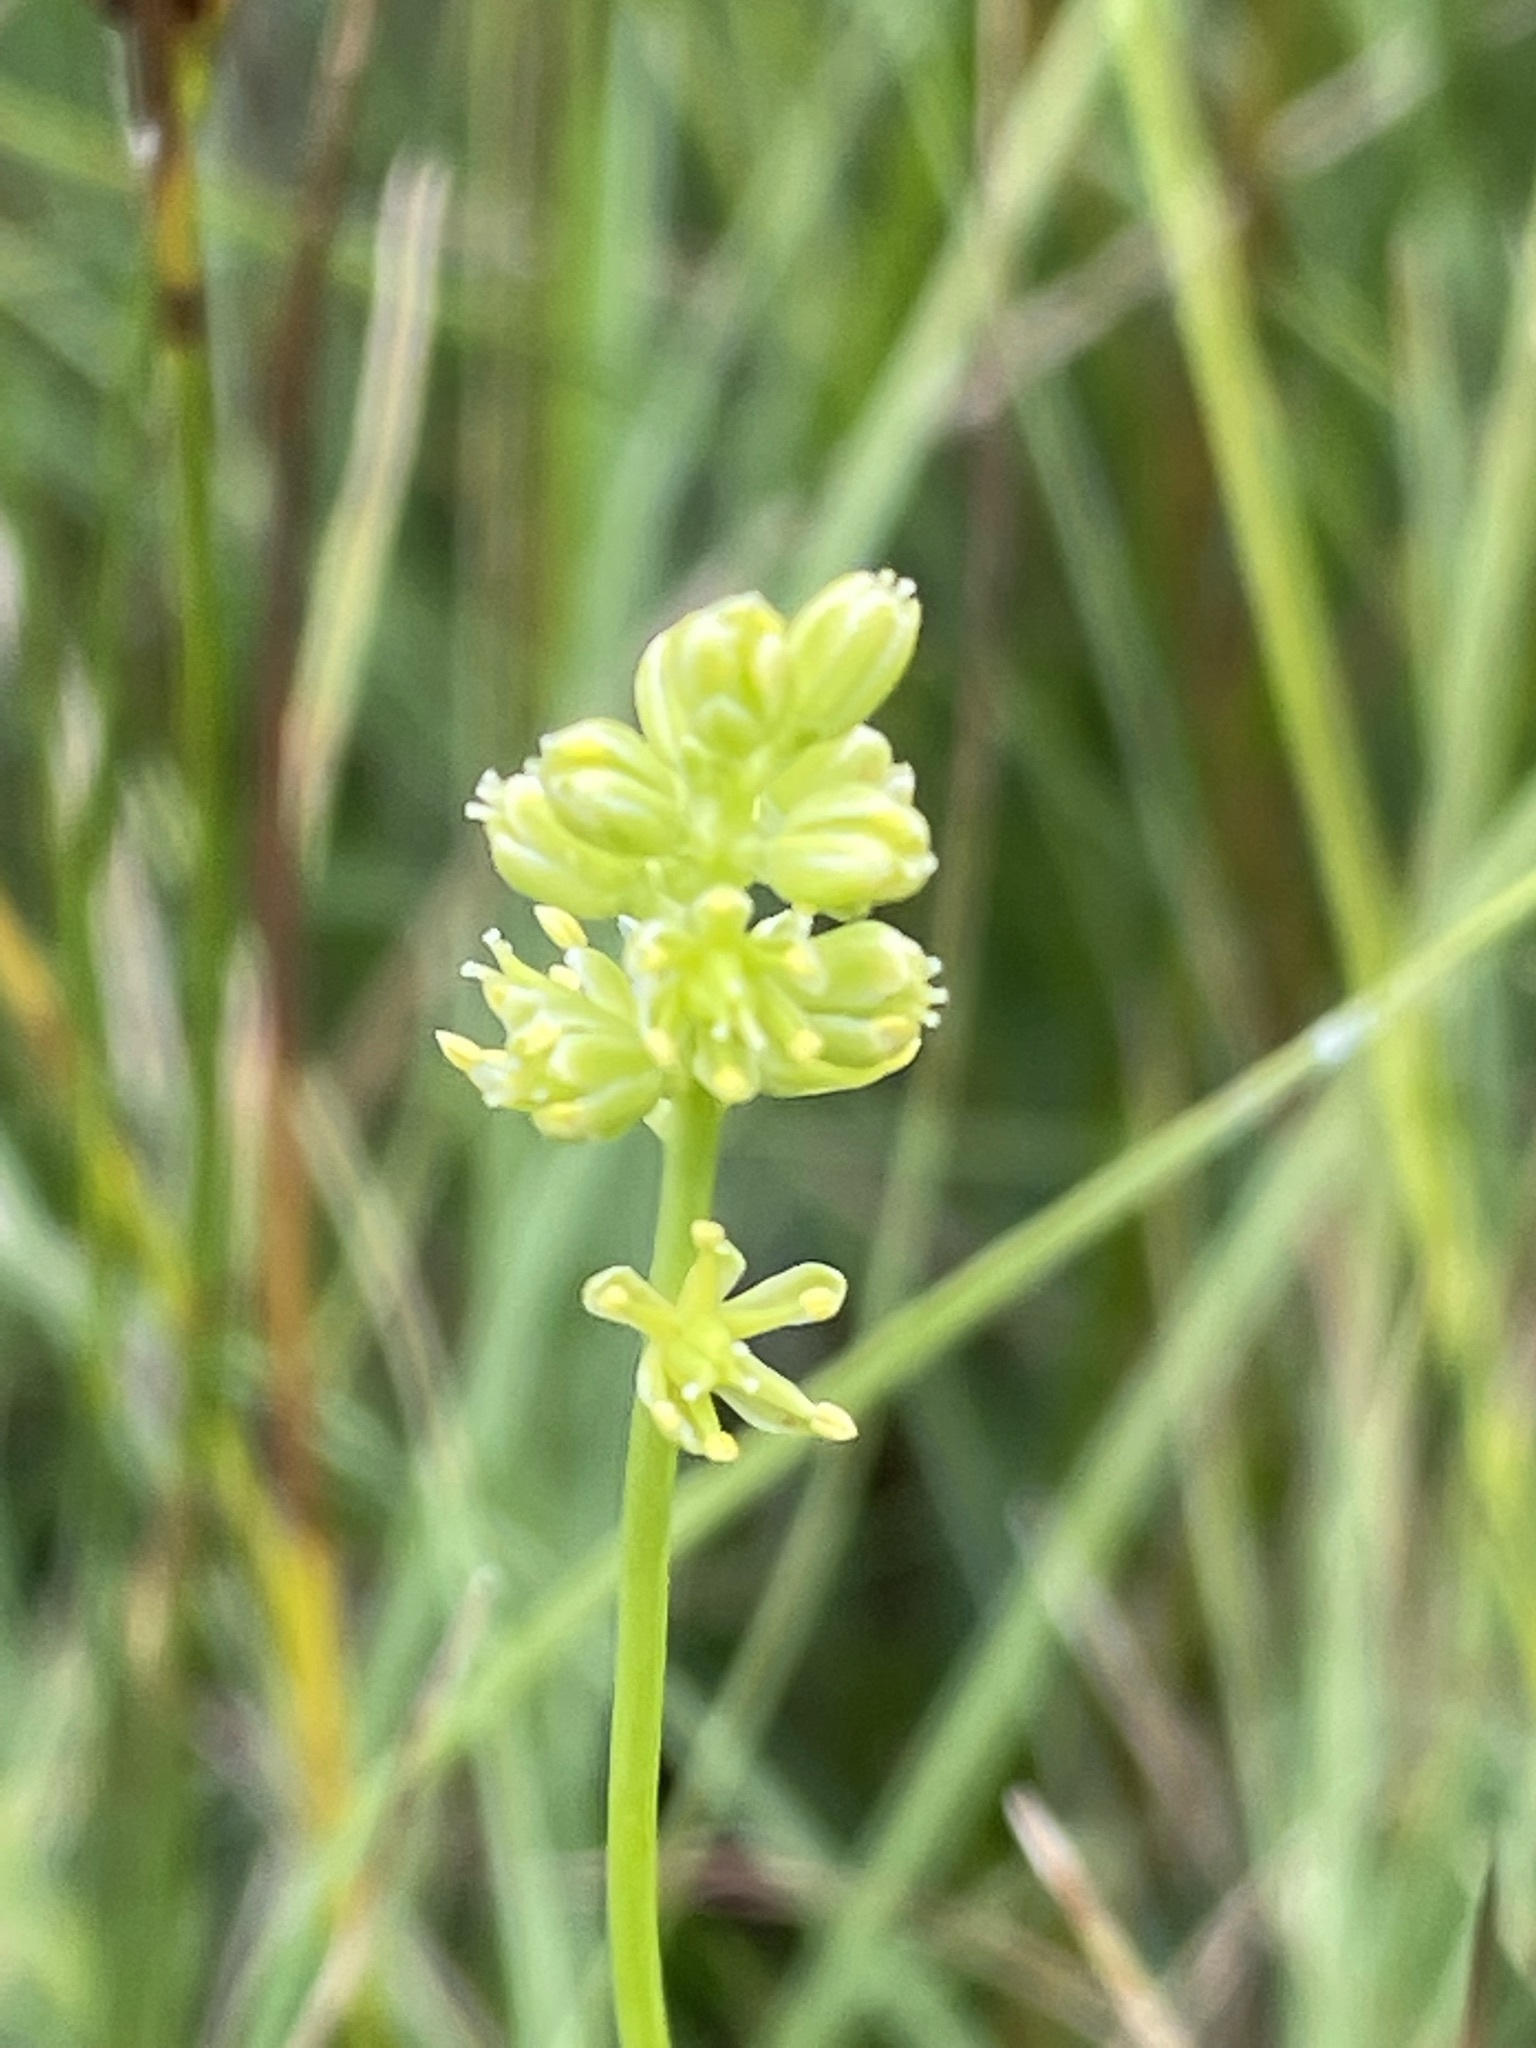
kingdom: Plantae
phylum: Tracheophyta
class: Liliopsida
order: Alismatales
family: Tofieldiaceae
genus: Tofieldia
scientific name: Tofieldia calyculata
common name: German-asphodel
